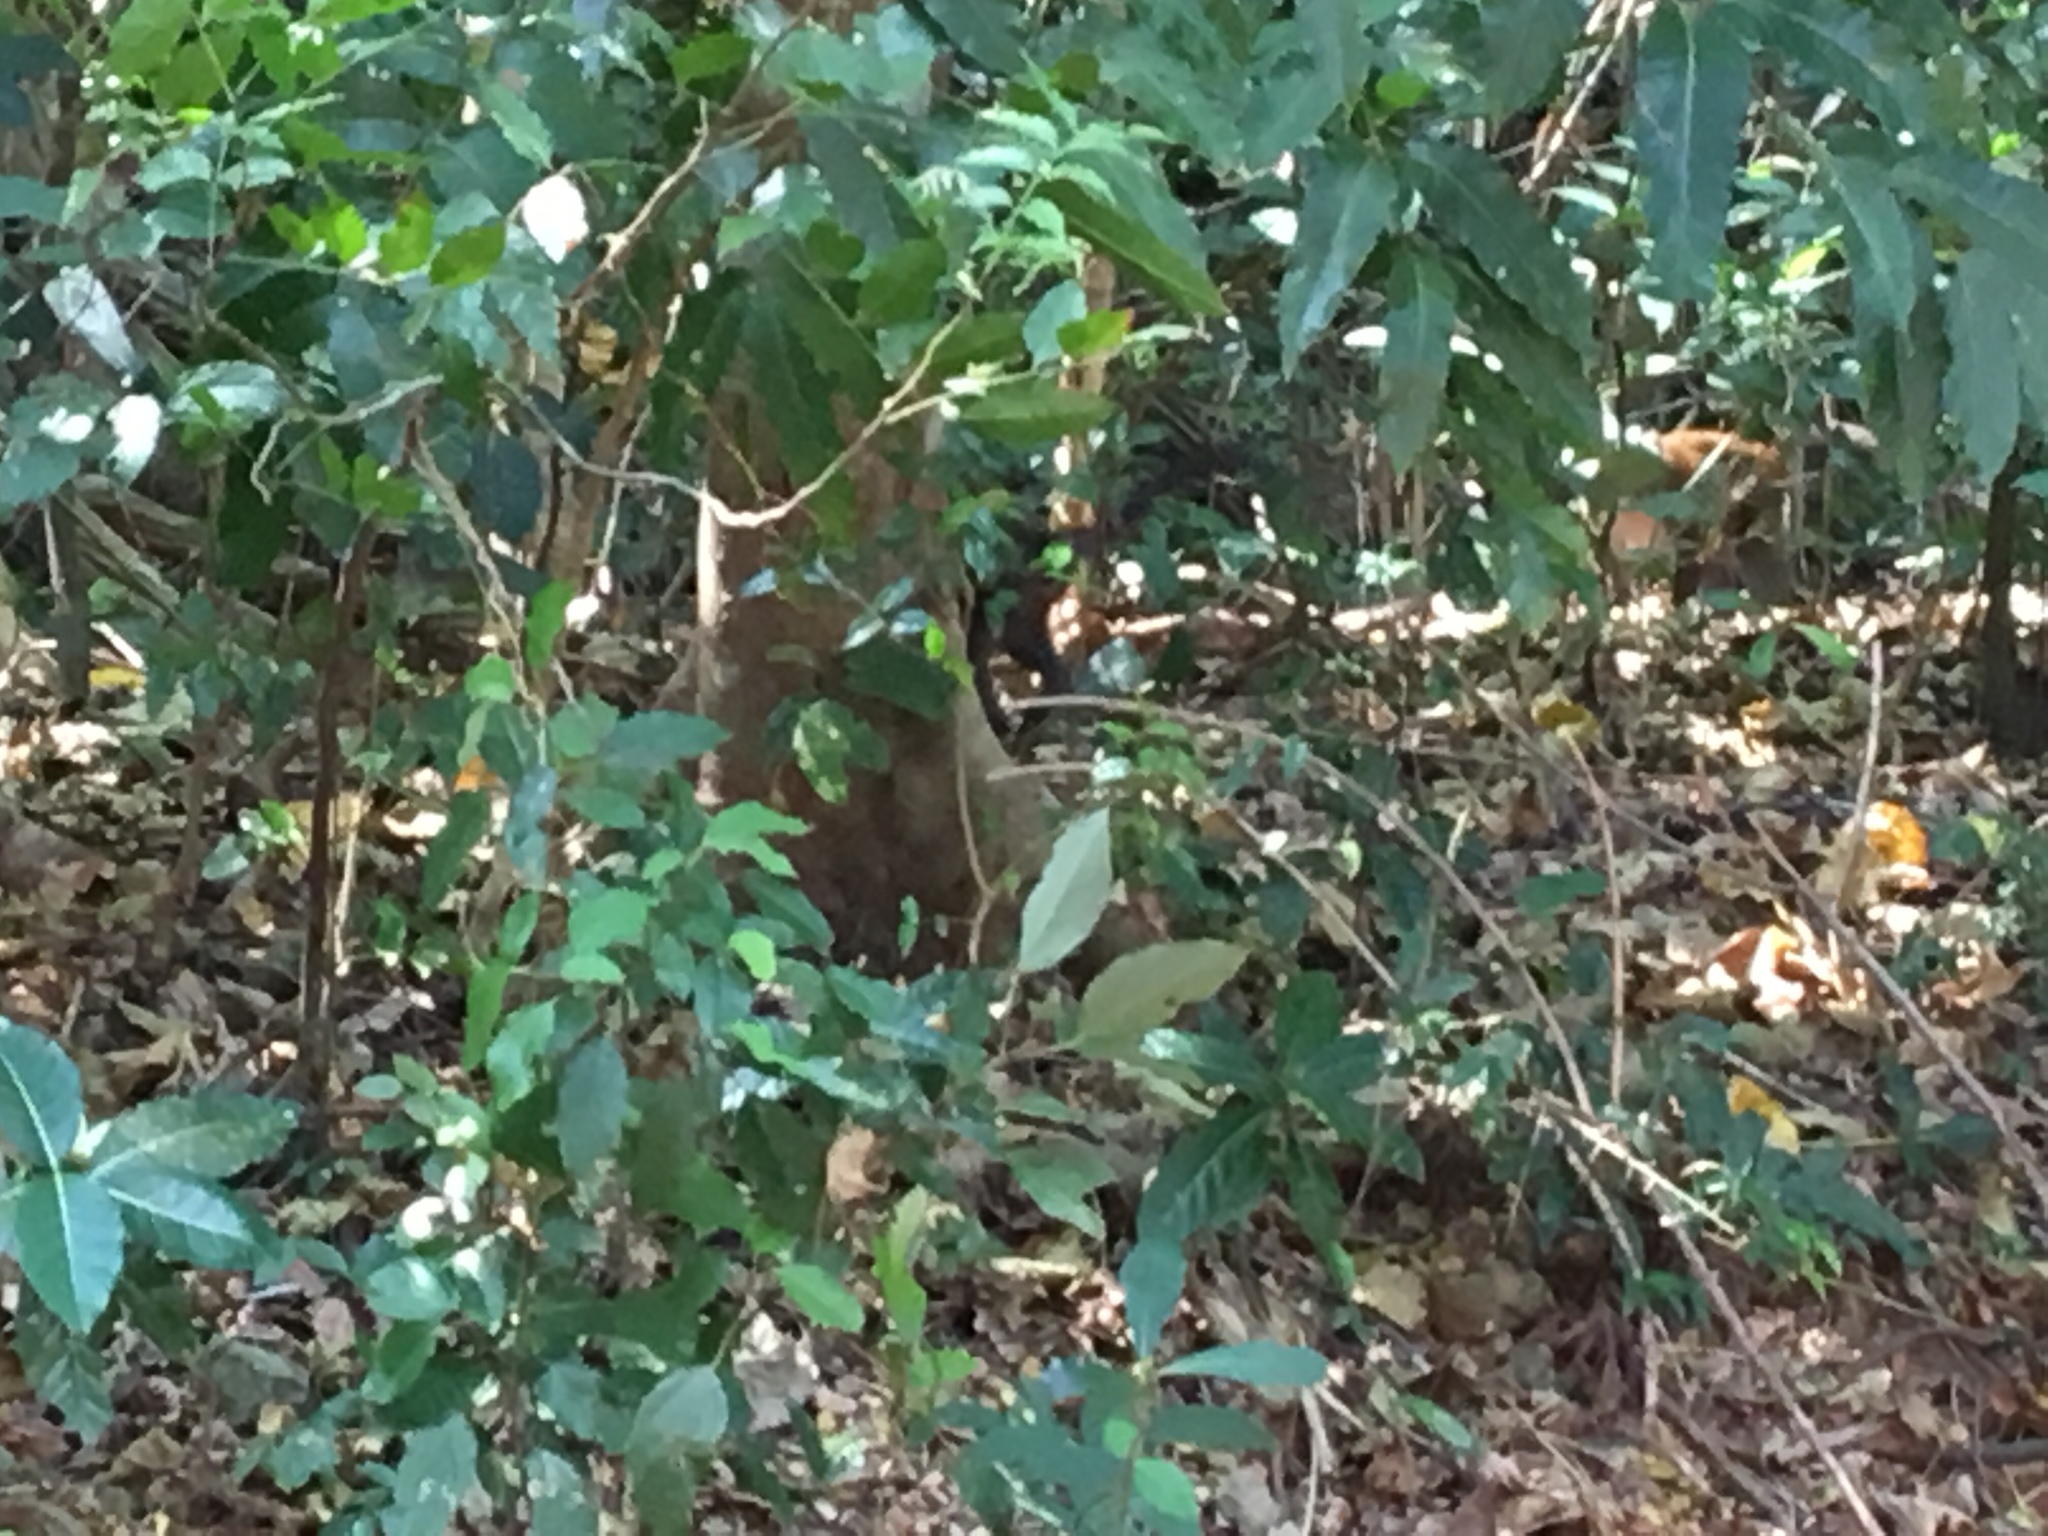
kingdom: Animalia
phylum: Chordata
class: Mammalia
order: Primates
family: Cercopithecidae
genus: Macaca
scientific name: Macaca fascicularis
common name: Crab-eating macaque
